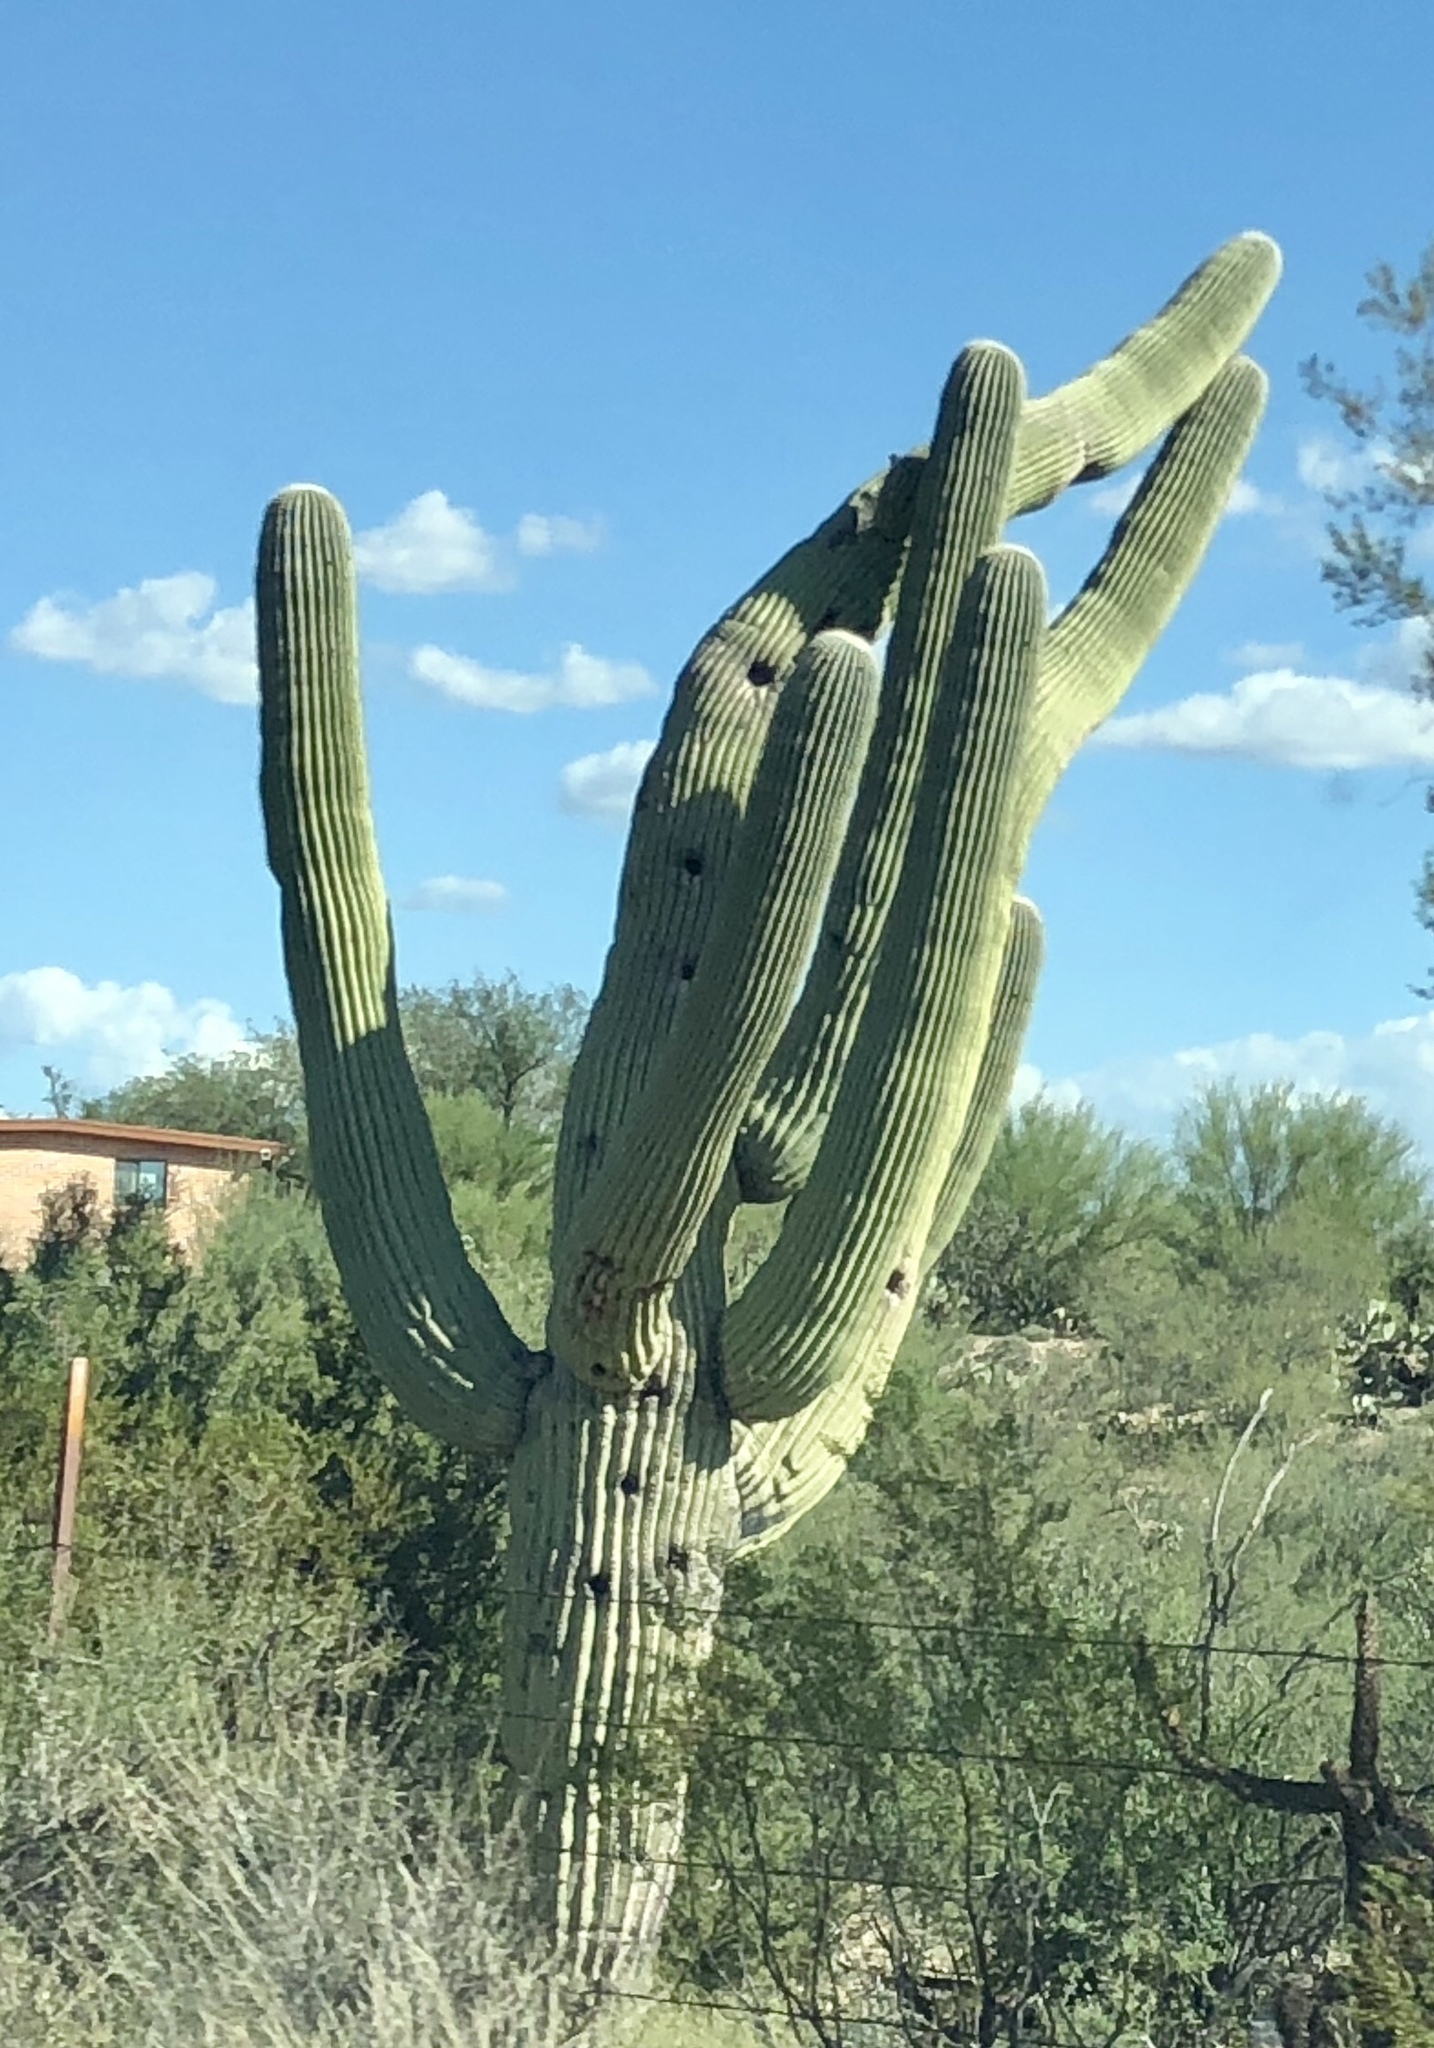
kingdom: Plantae
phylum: Tracheophyta
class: Magnoliopsida
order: Caryophyllales
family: Cactaceae
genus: Carnegiea
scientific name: Carnegiea gigantea
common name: Saguaro
